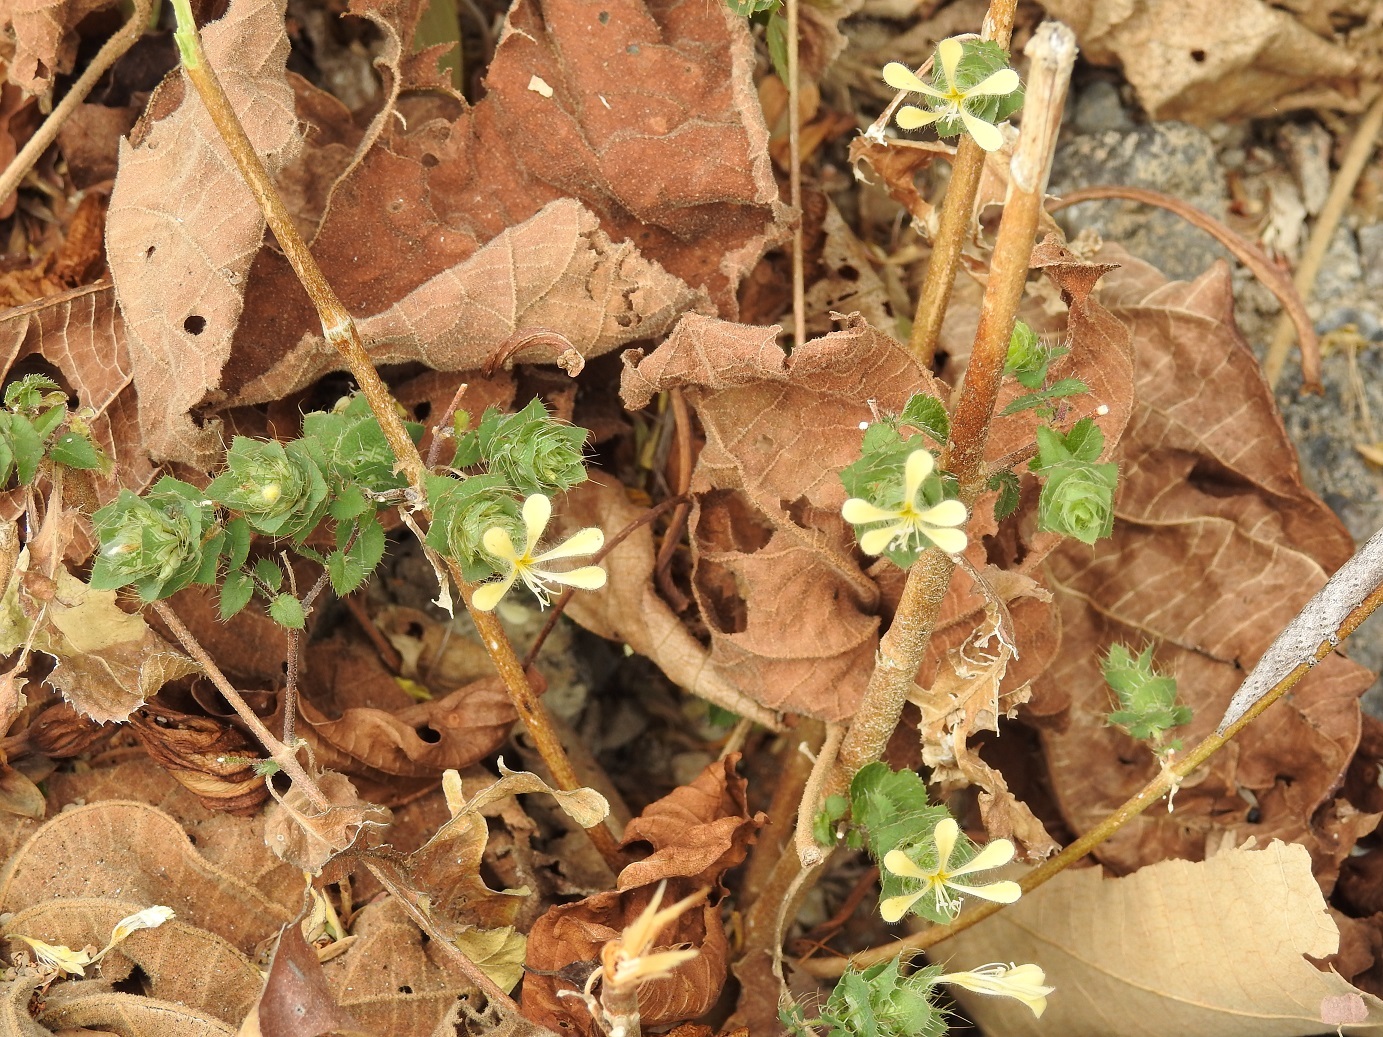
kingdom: Plantae
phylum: Tracheophyta
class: Magnoliopsida
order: Ericales
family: Polemoniaceae
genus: Loeselia
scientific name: Loeselia ciliata
